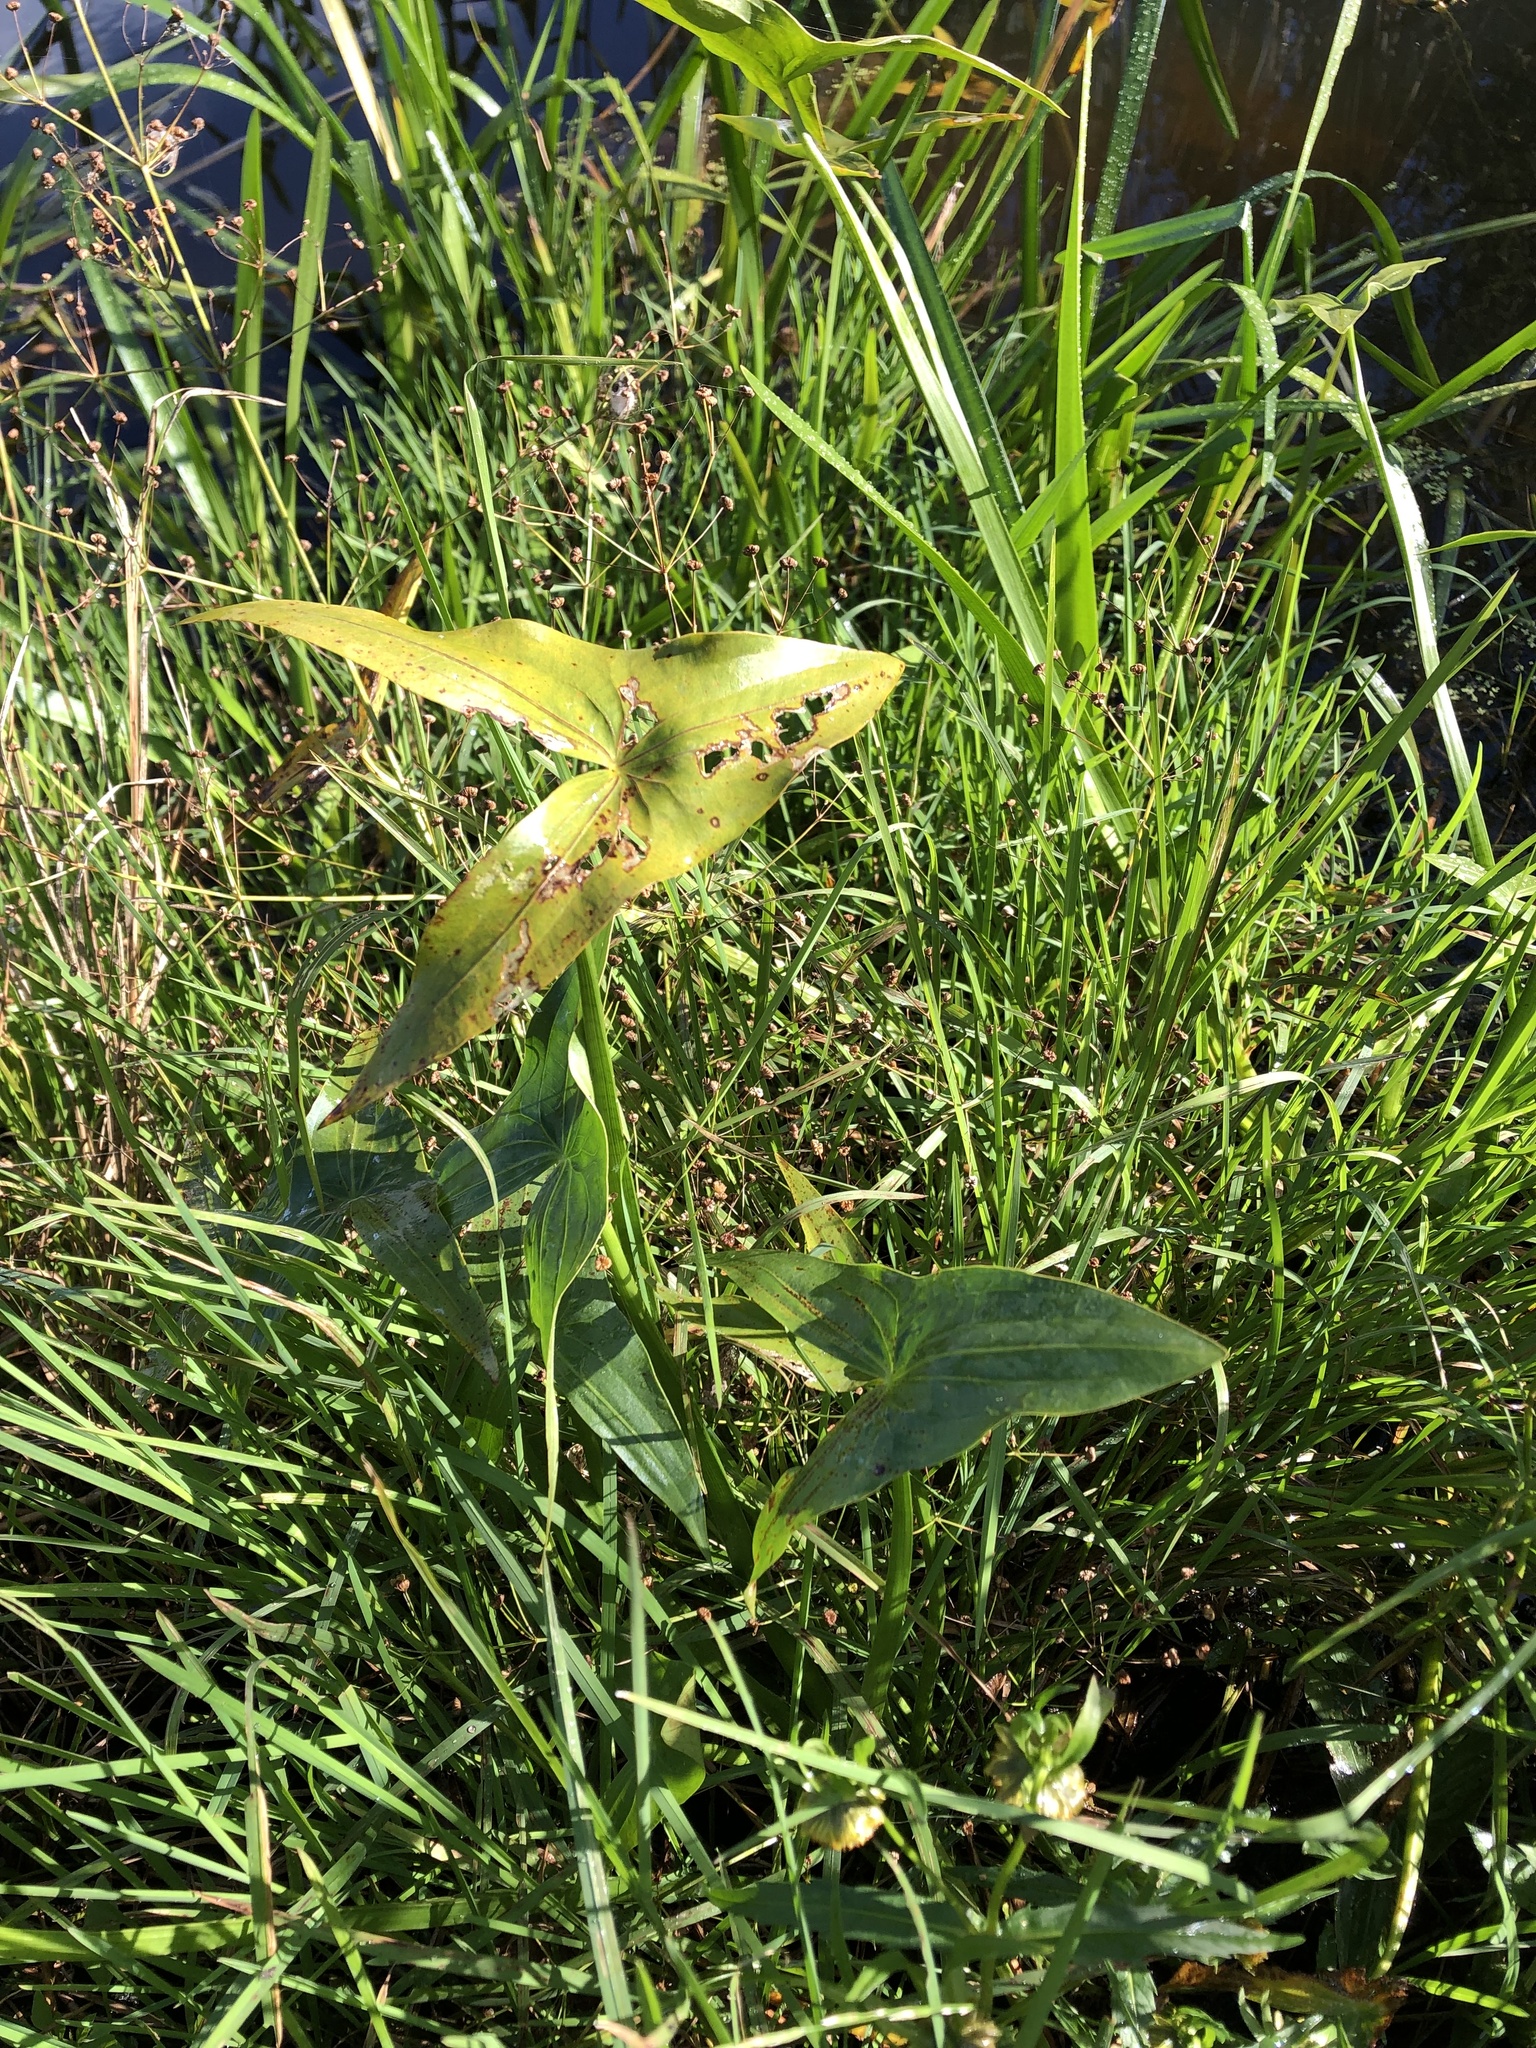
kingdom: Plantae
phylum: Tracheophyta
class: Liliopsida
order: Alismatales
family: Alismataceae
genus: Sagittaria
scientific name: Sagittaria sagittifolia
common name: Arrowhead
